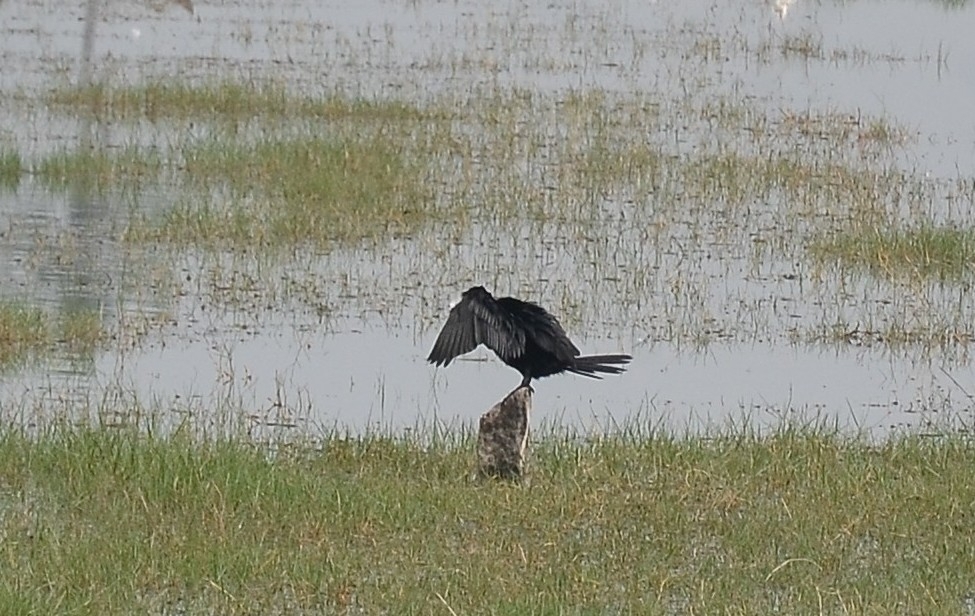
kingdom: Animalia
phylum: Chordata
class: Aves
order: Suliformes
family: Phalacrocoracidae
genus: Microcarbo
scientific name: Microcarbo niger
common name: Little cormorant
